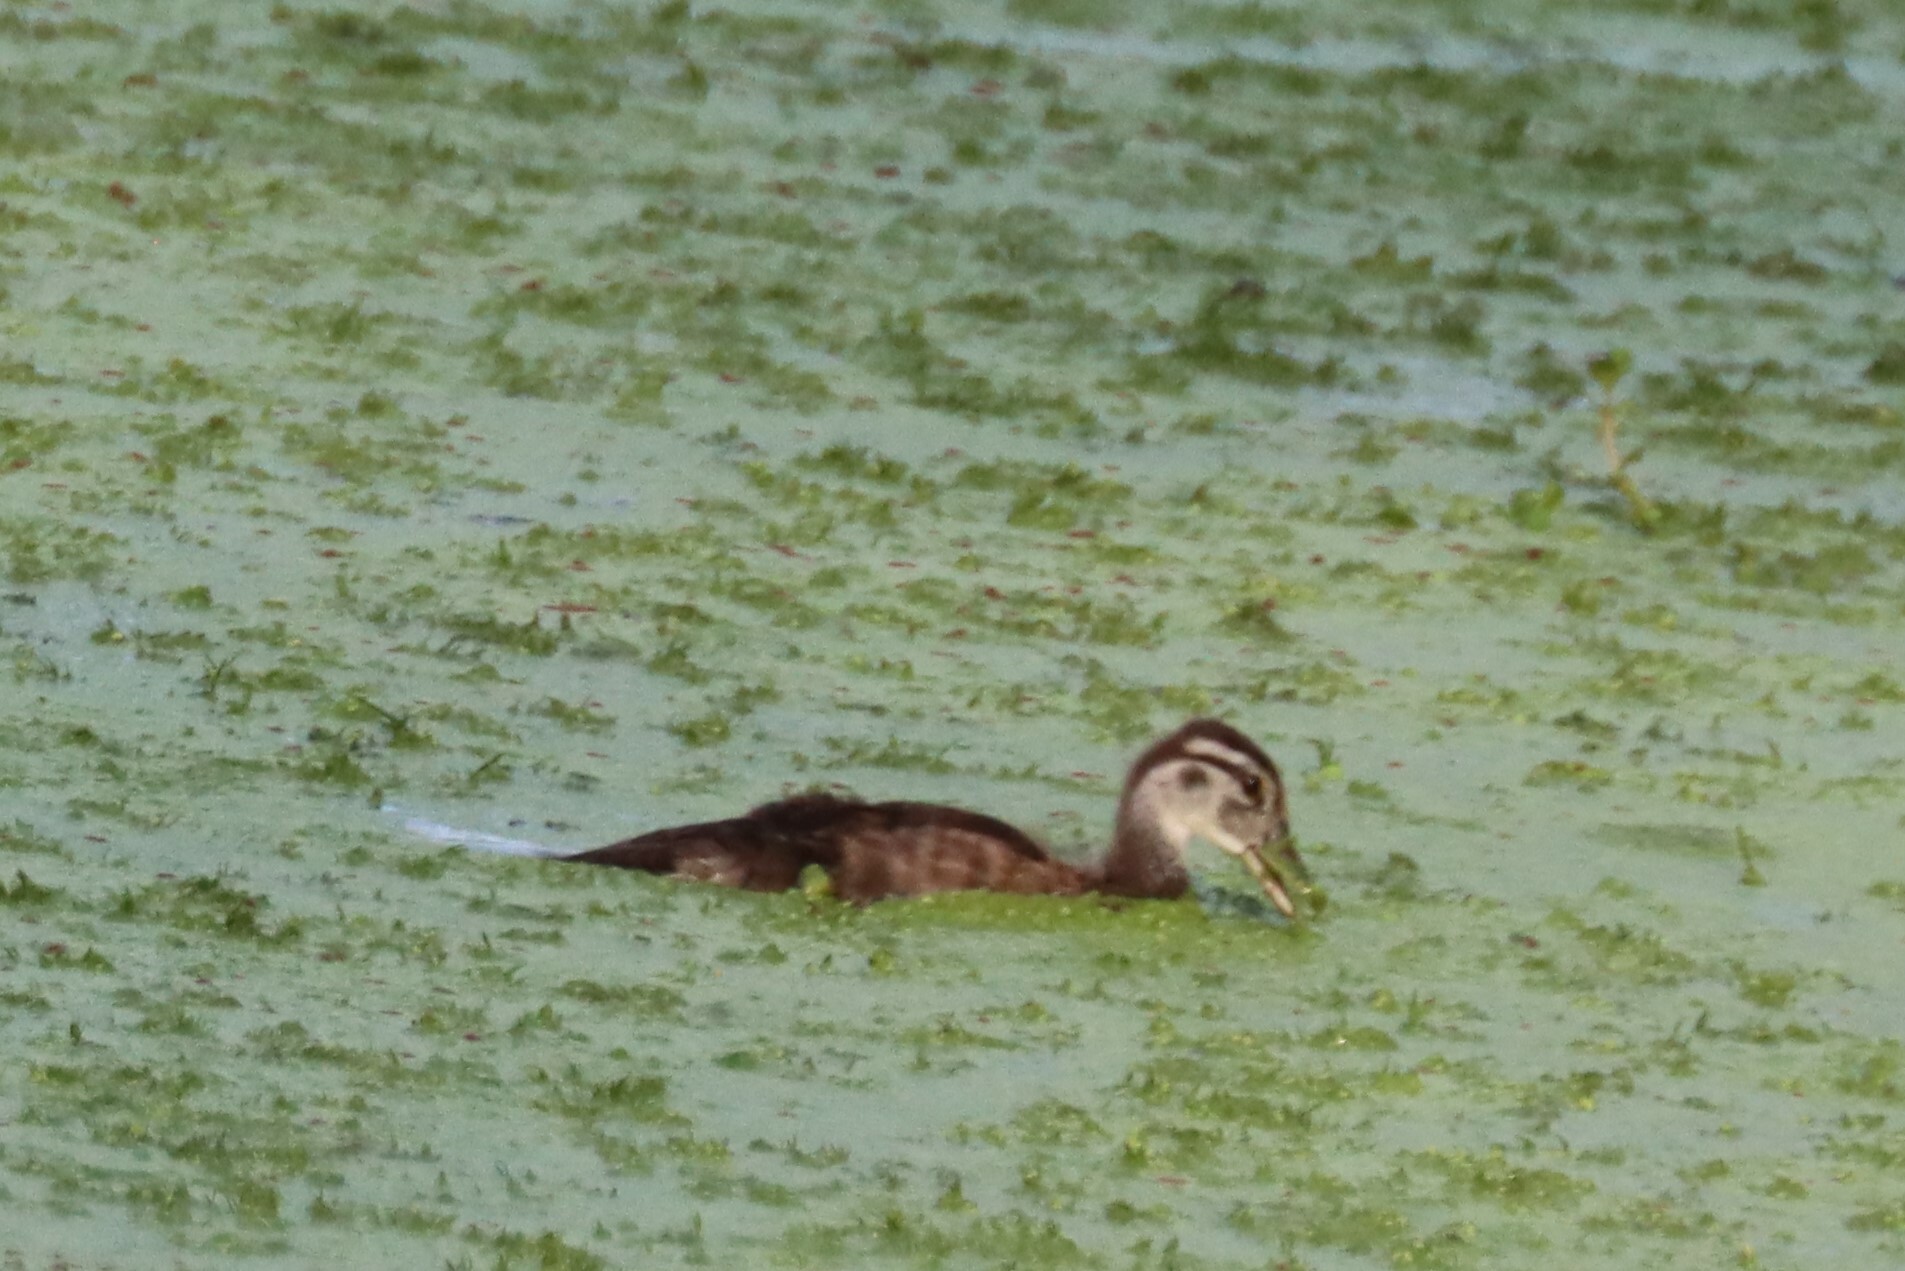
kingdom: Animalia
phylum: Chordata
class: Aves
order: Anseriformes
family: Anatidae
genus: Aix
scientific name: Aix sponsa
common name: Wood duck
